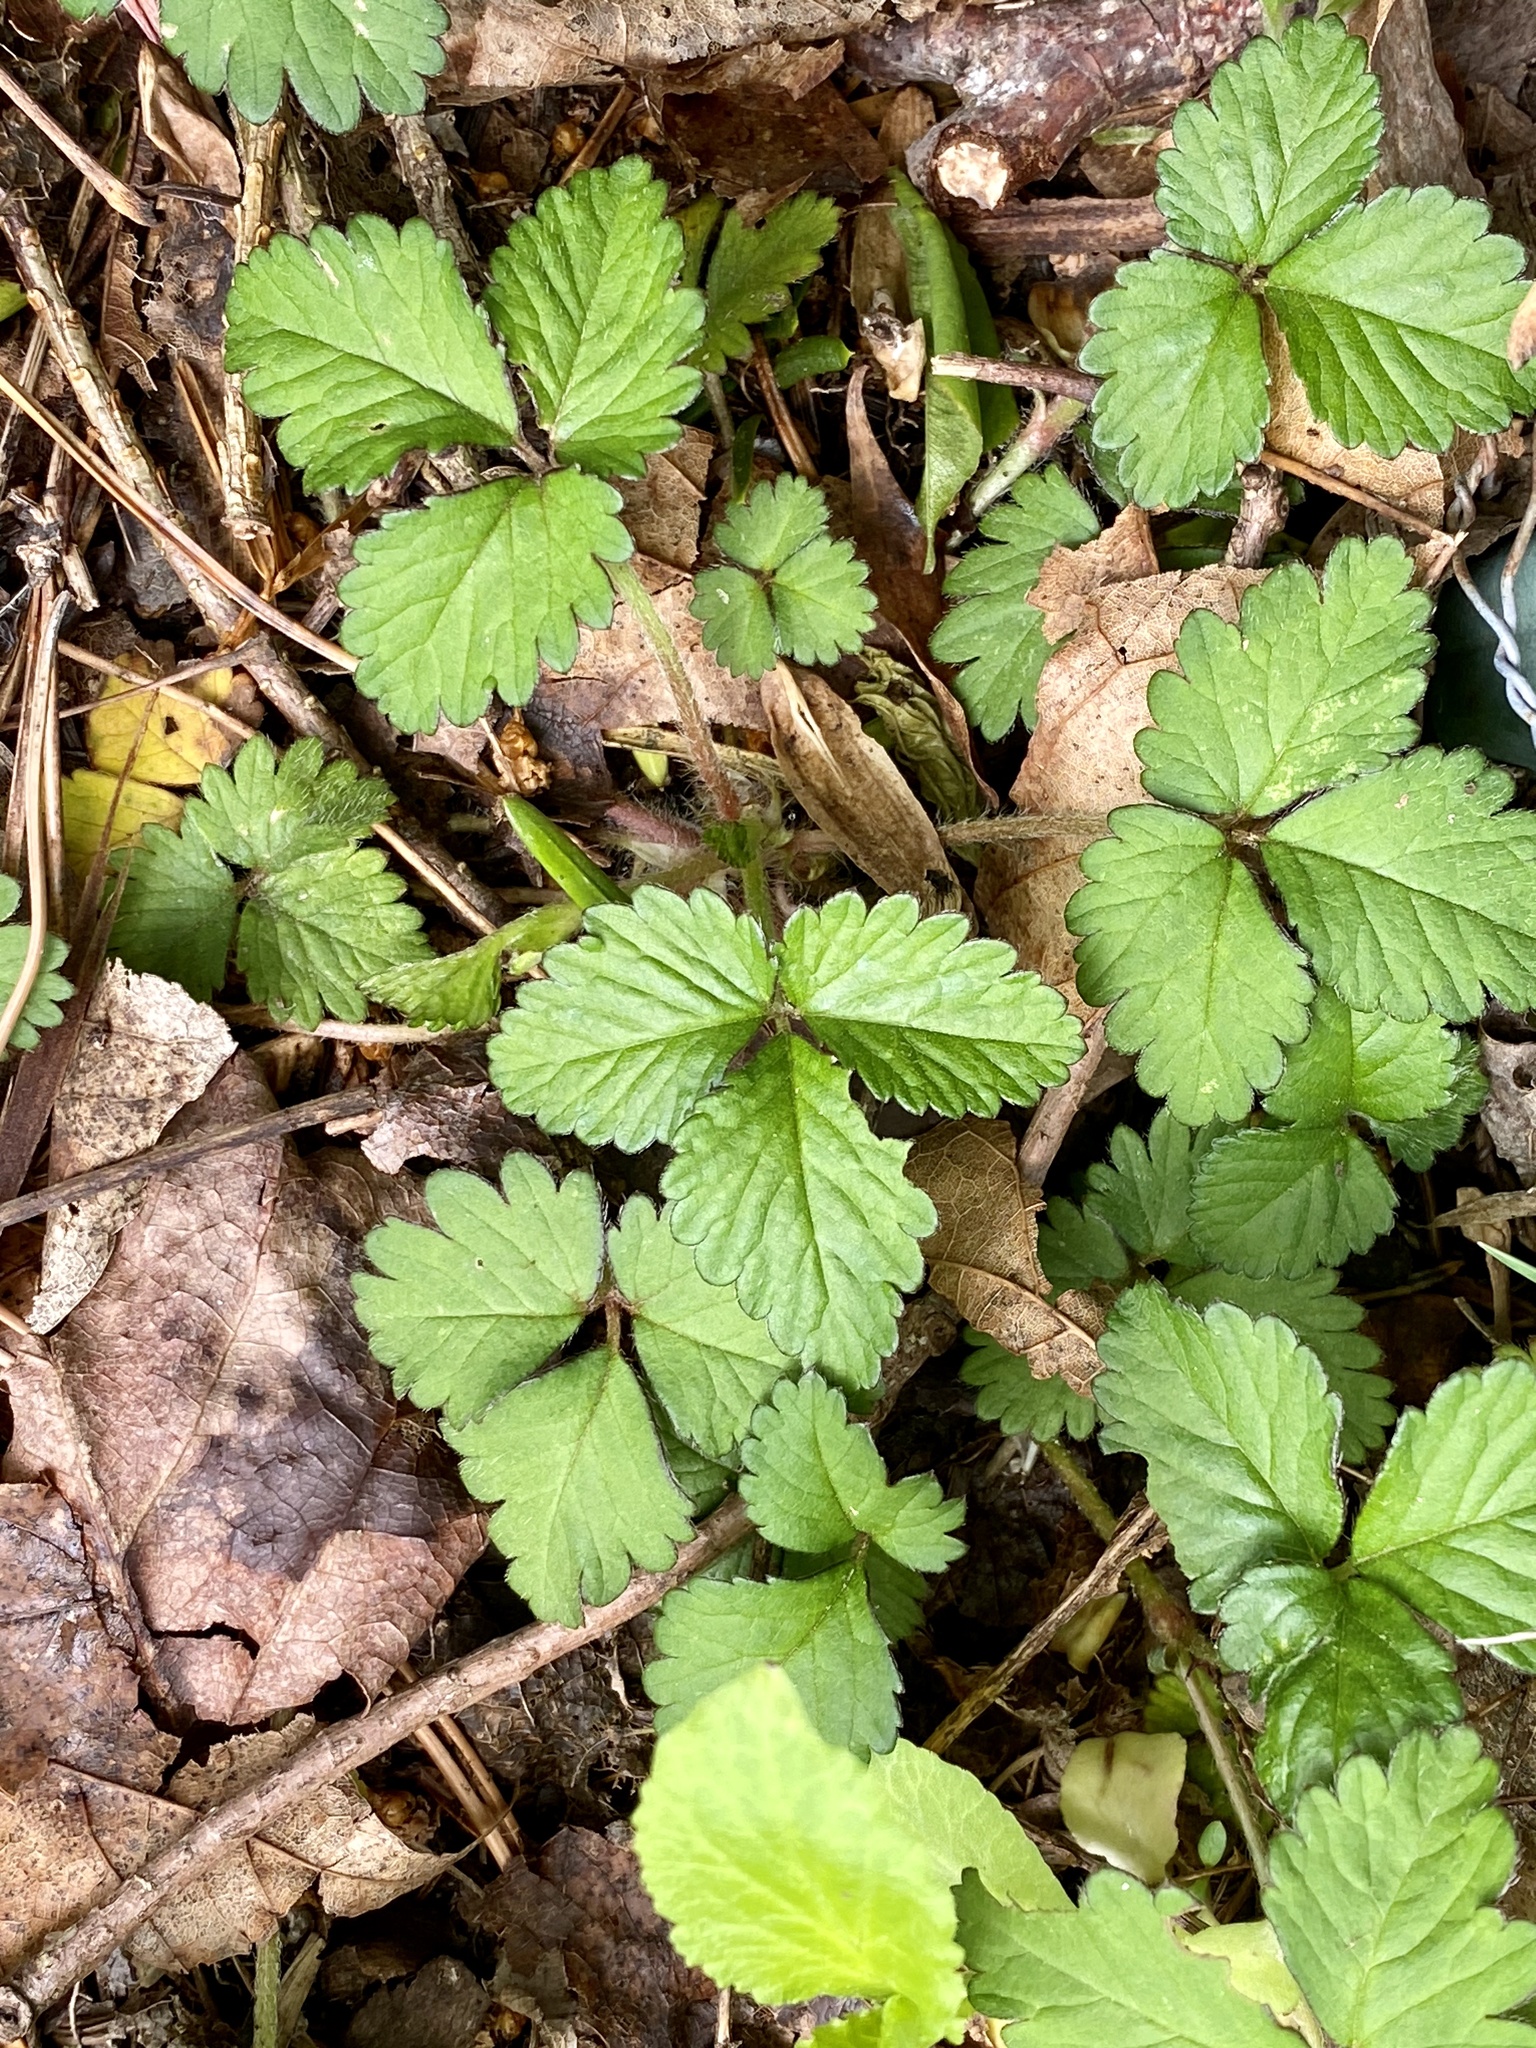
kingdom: Plantae
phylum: Tracheophyta
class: Magnoliopsida
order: Rosales
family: Rosaceae
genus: Potentilla
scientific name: Potentilla indica
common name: Yellow-flowered strawberry
